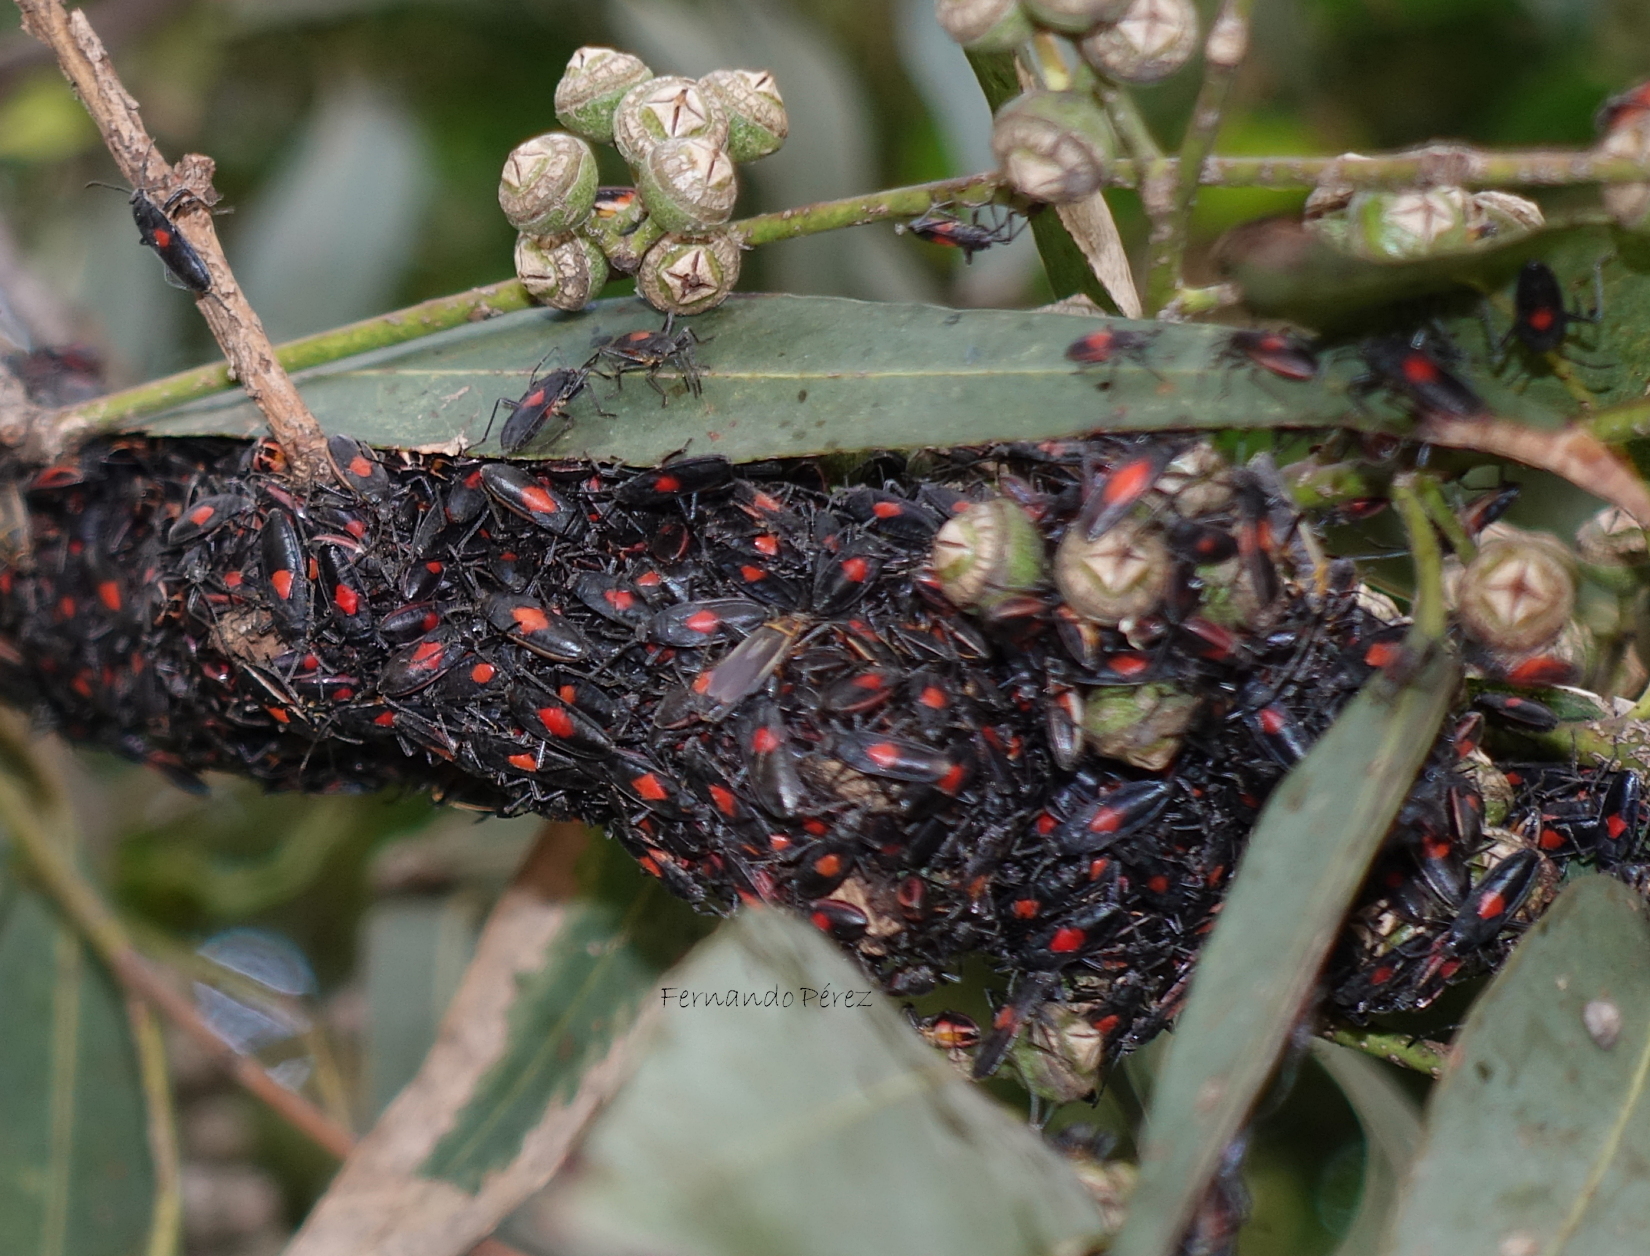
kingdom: Animalia
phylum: Arthropoda
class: Insecta
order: Hemiptera
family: Largidae
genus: Stenomacra
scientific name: Stenomacra marginella
